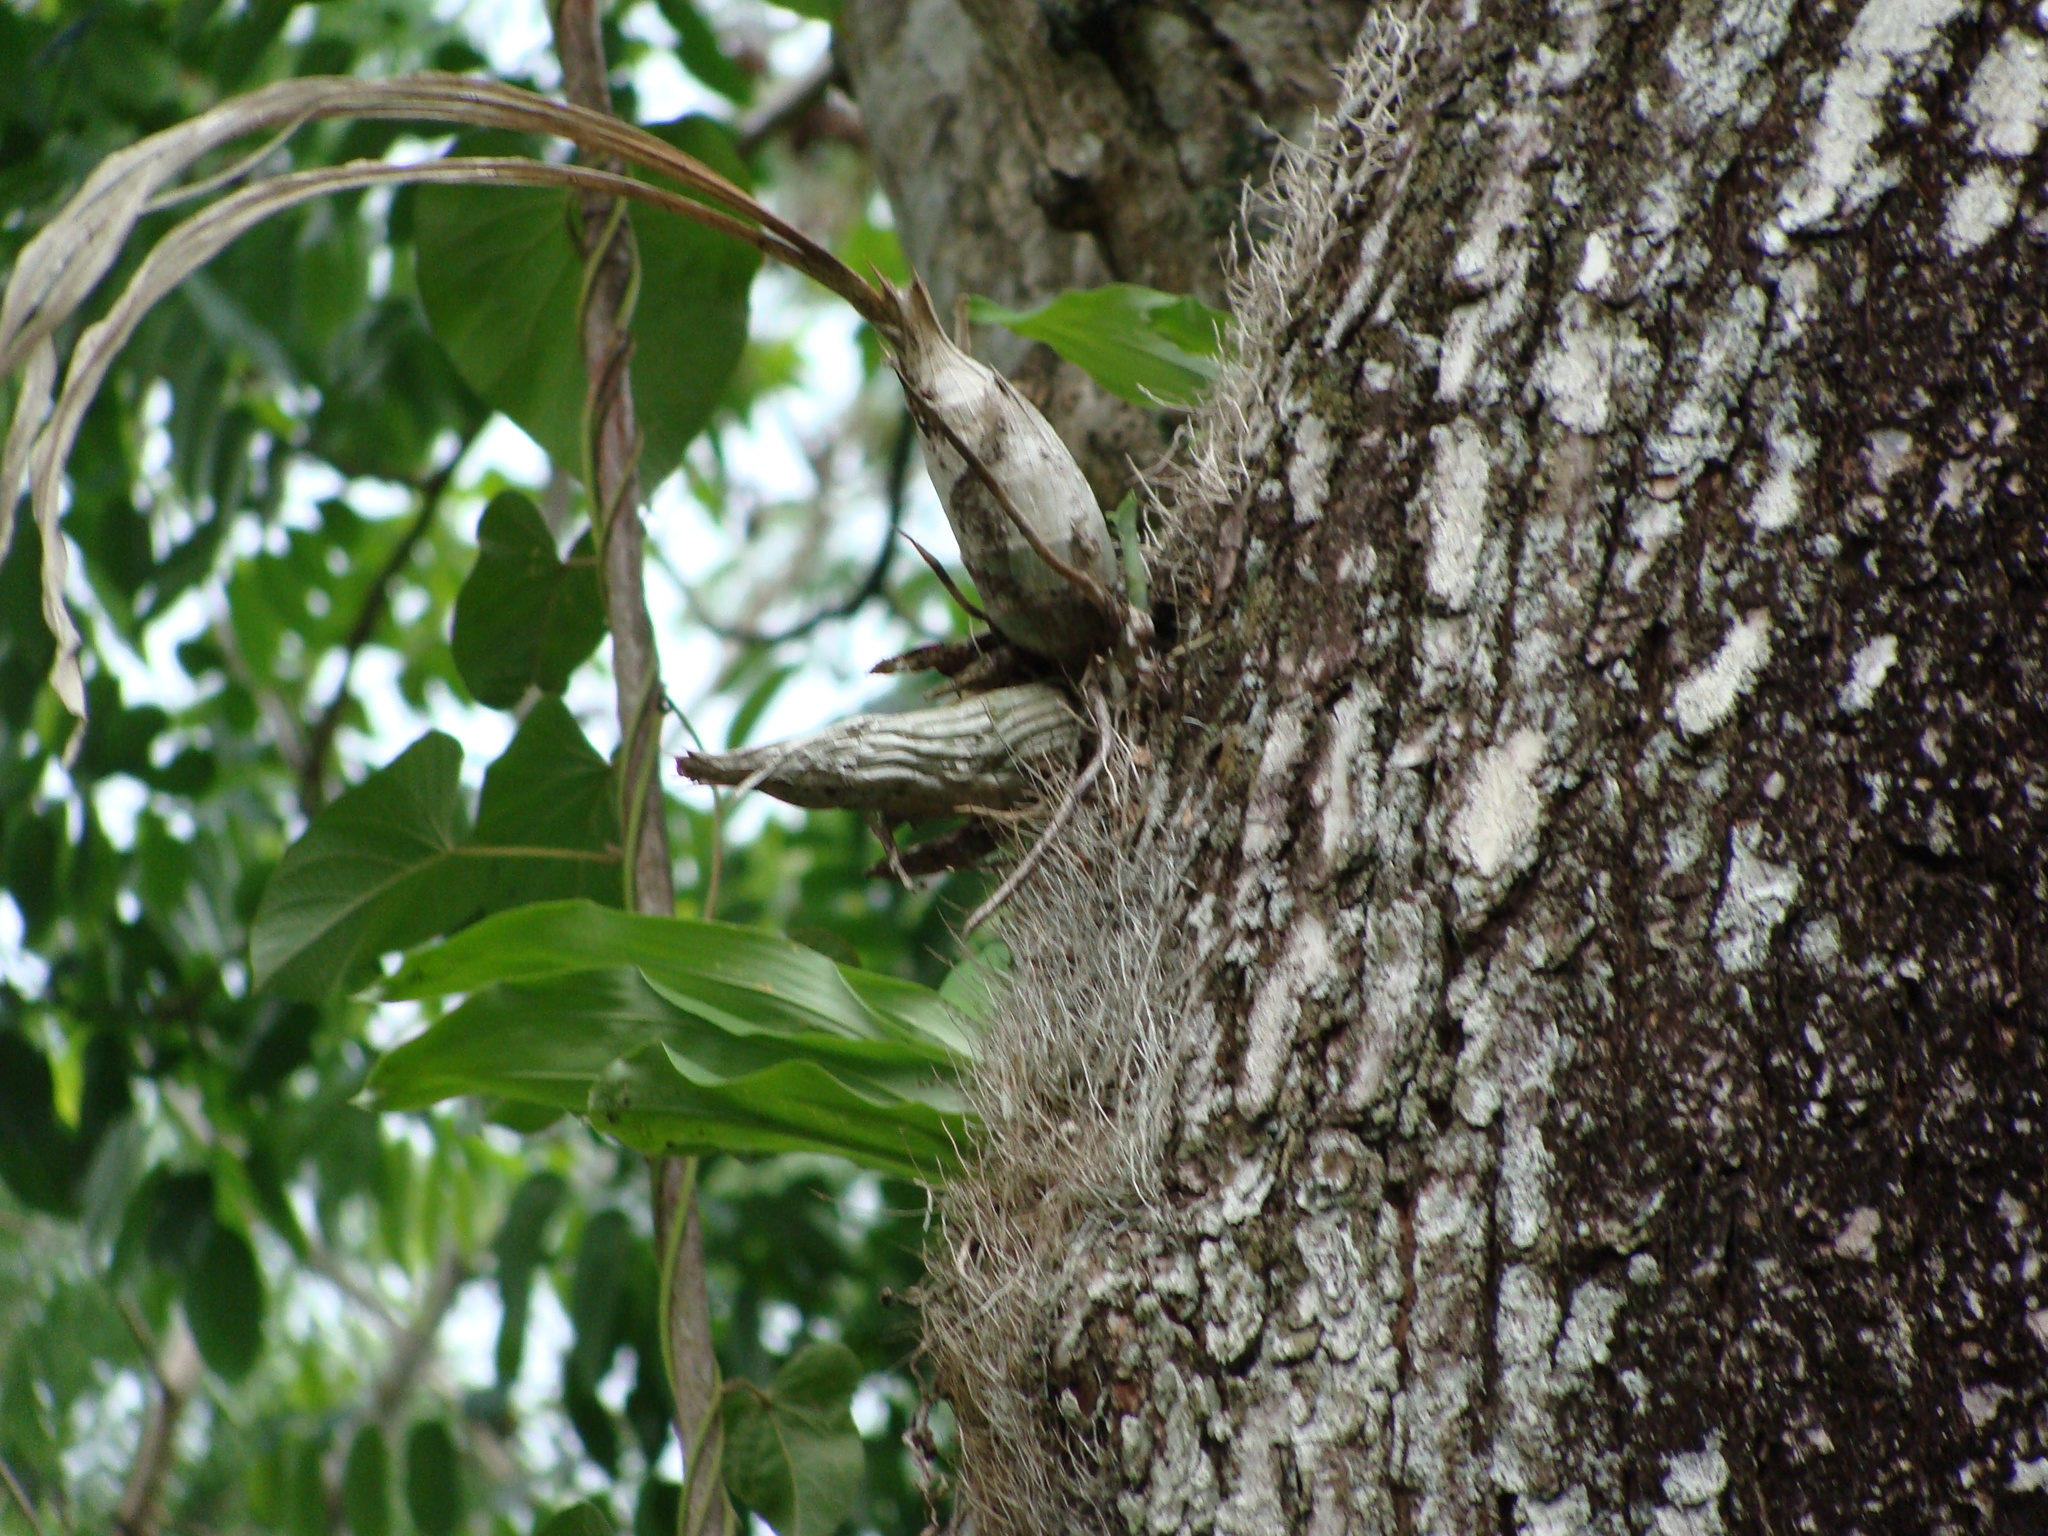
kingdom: Plantae
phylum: Tracheophyta
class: Liliopsida
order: Asparagales
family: Orchidaceae
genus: Catasetum
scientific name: Catasetum integerrimum
